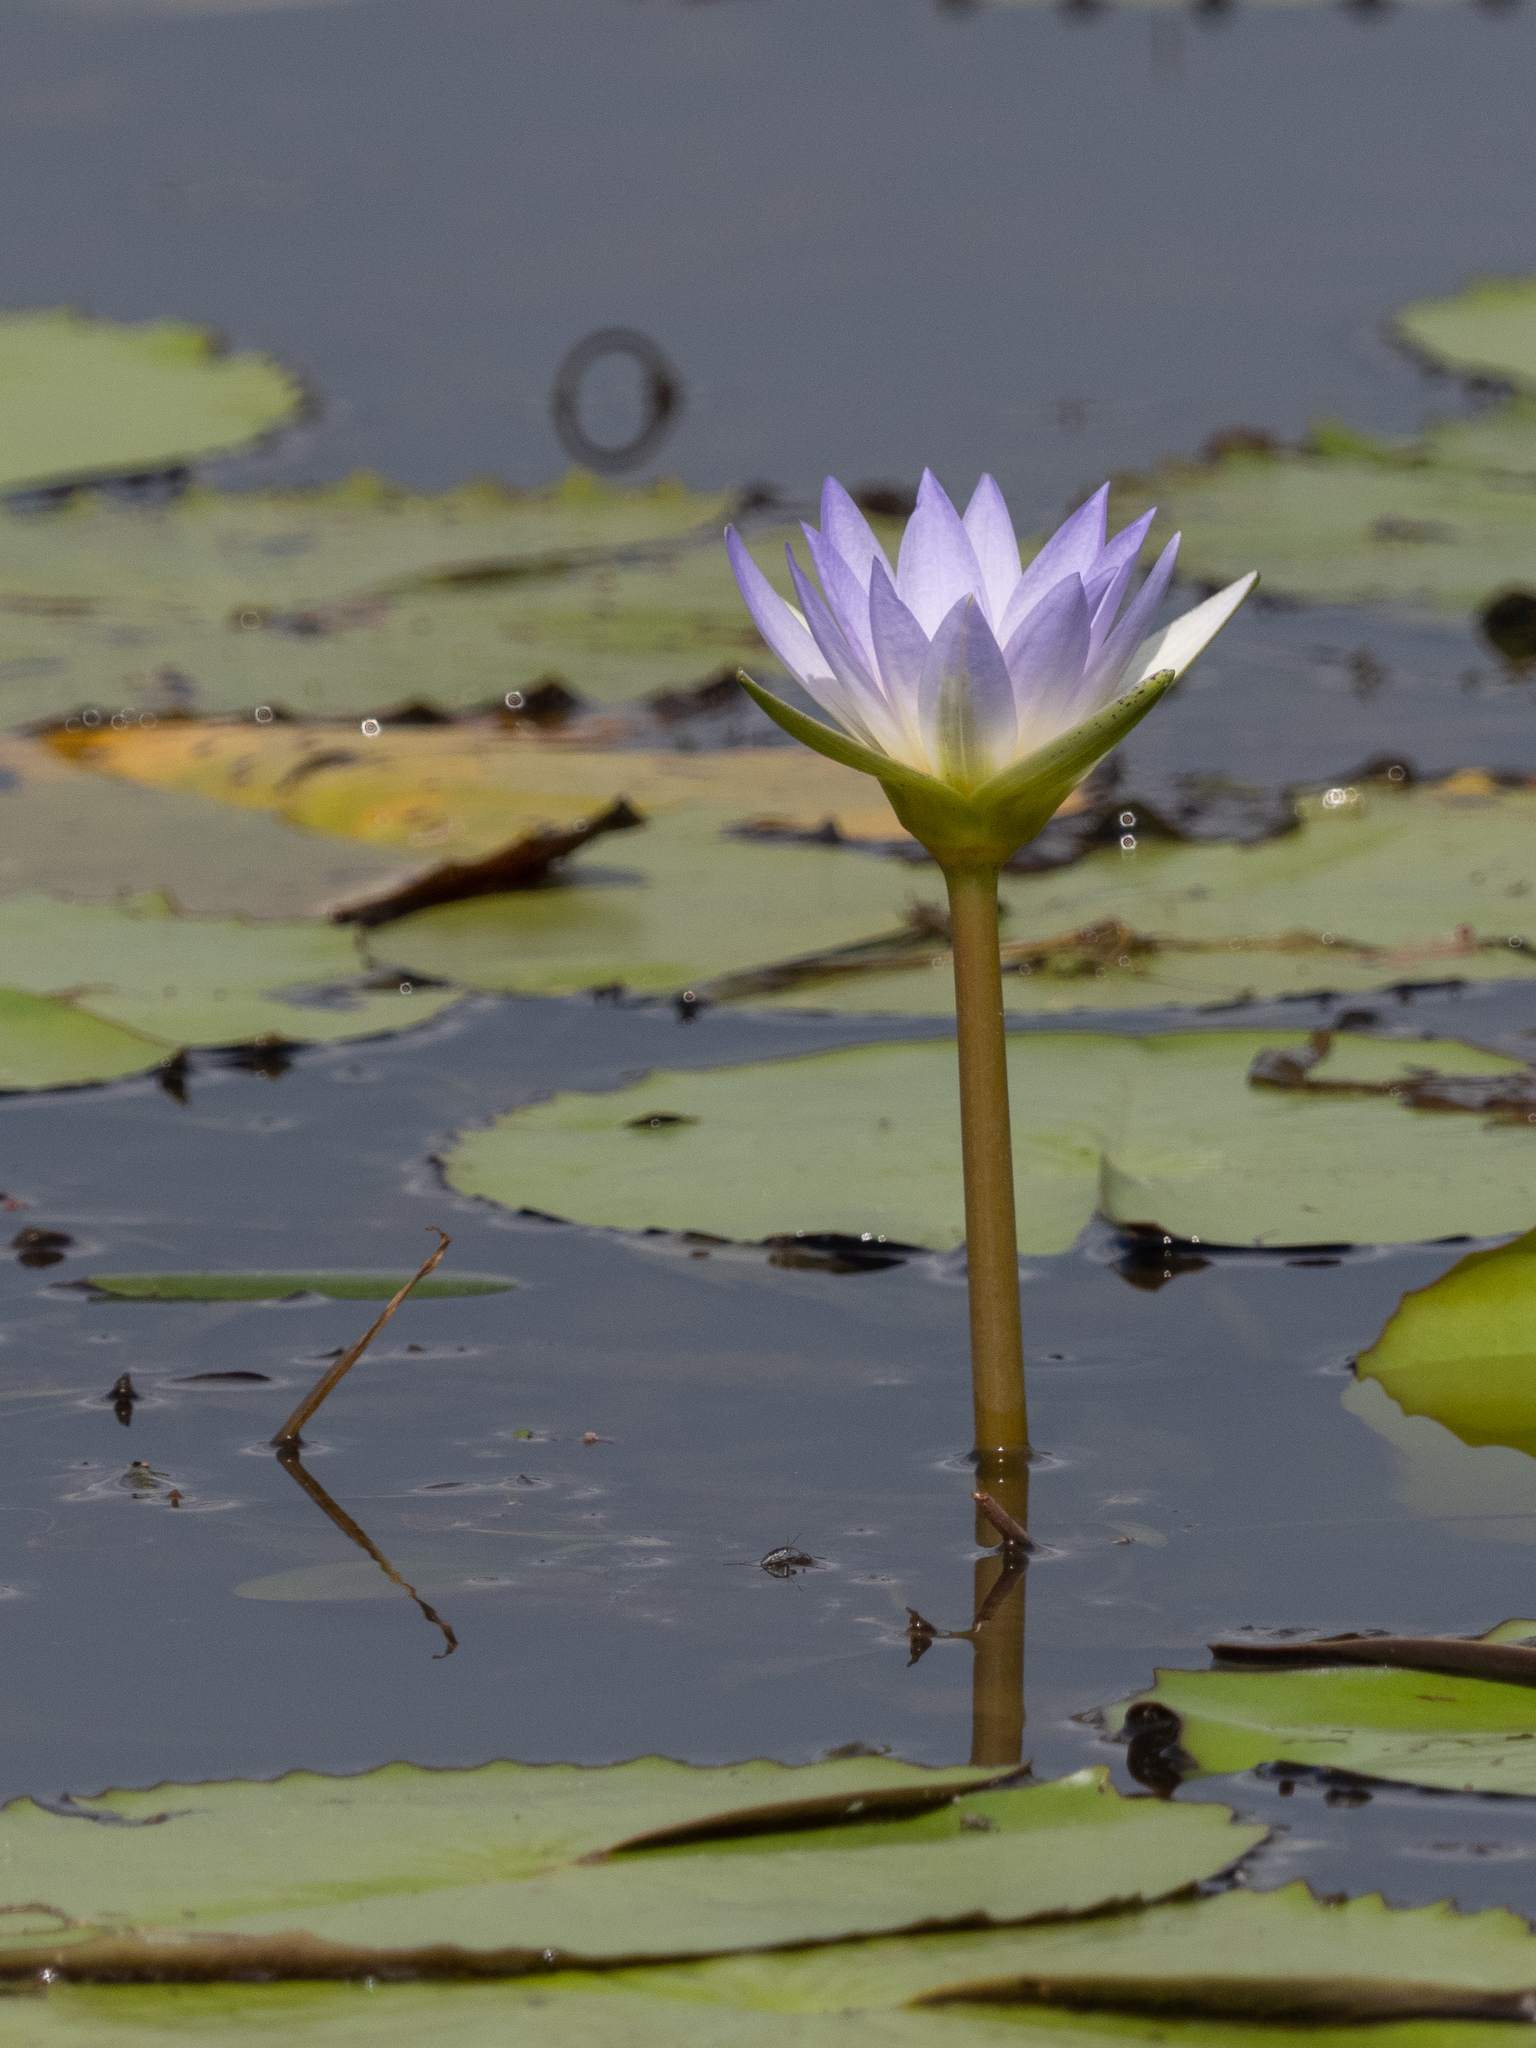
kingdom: Plantae
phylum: Tracheophyta
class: Magnoliopsida
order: Nymphaeales
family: Nymphaeaceae
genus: Nymphaea
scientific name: Nymphaea nouchali
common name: Blue lotus
